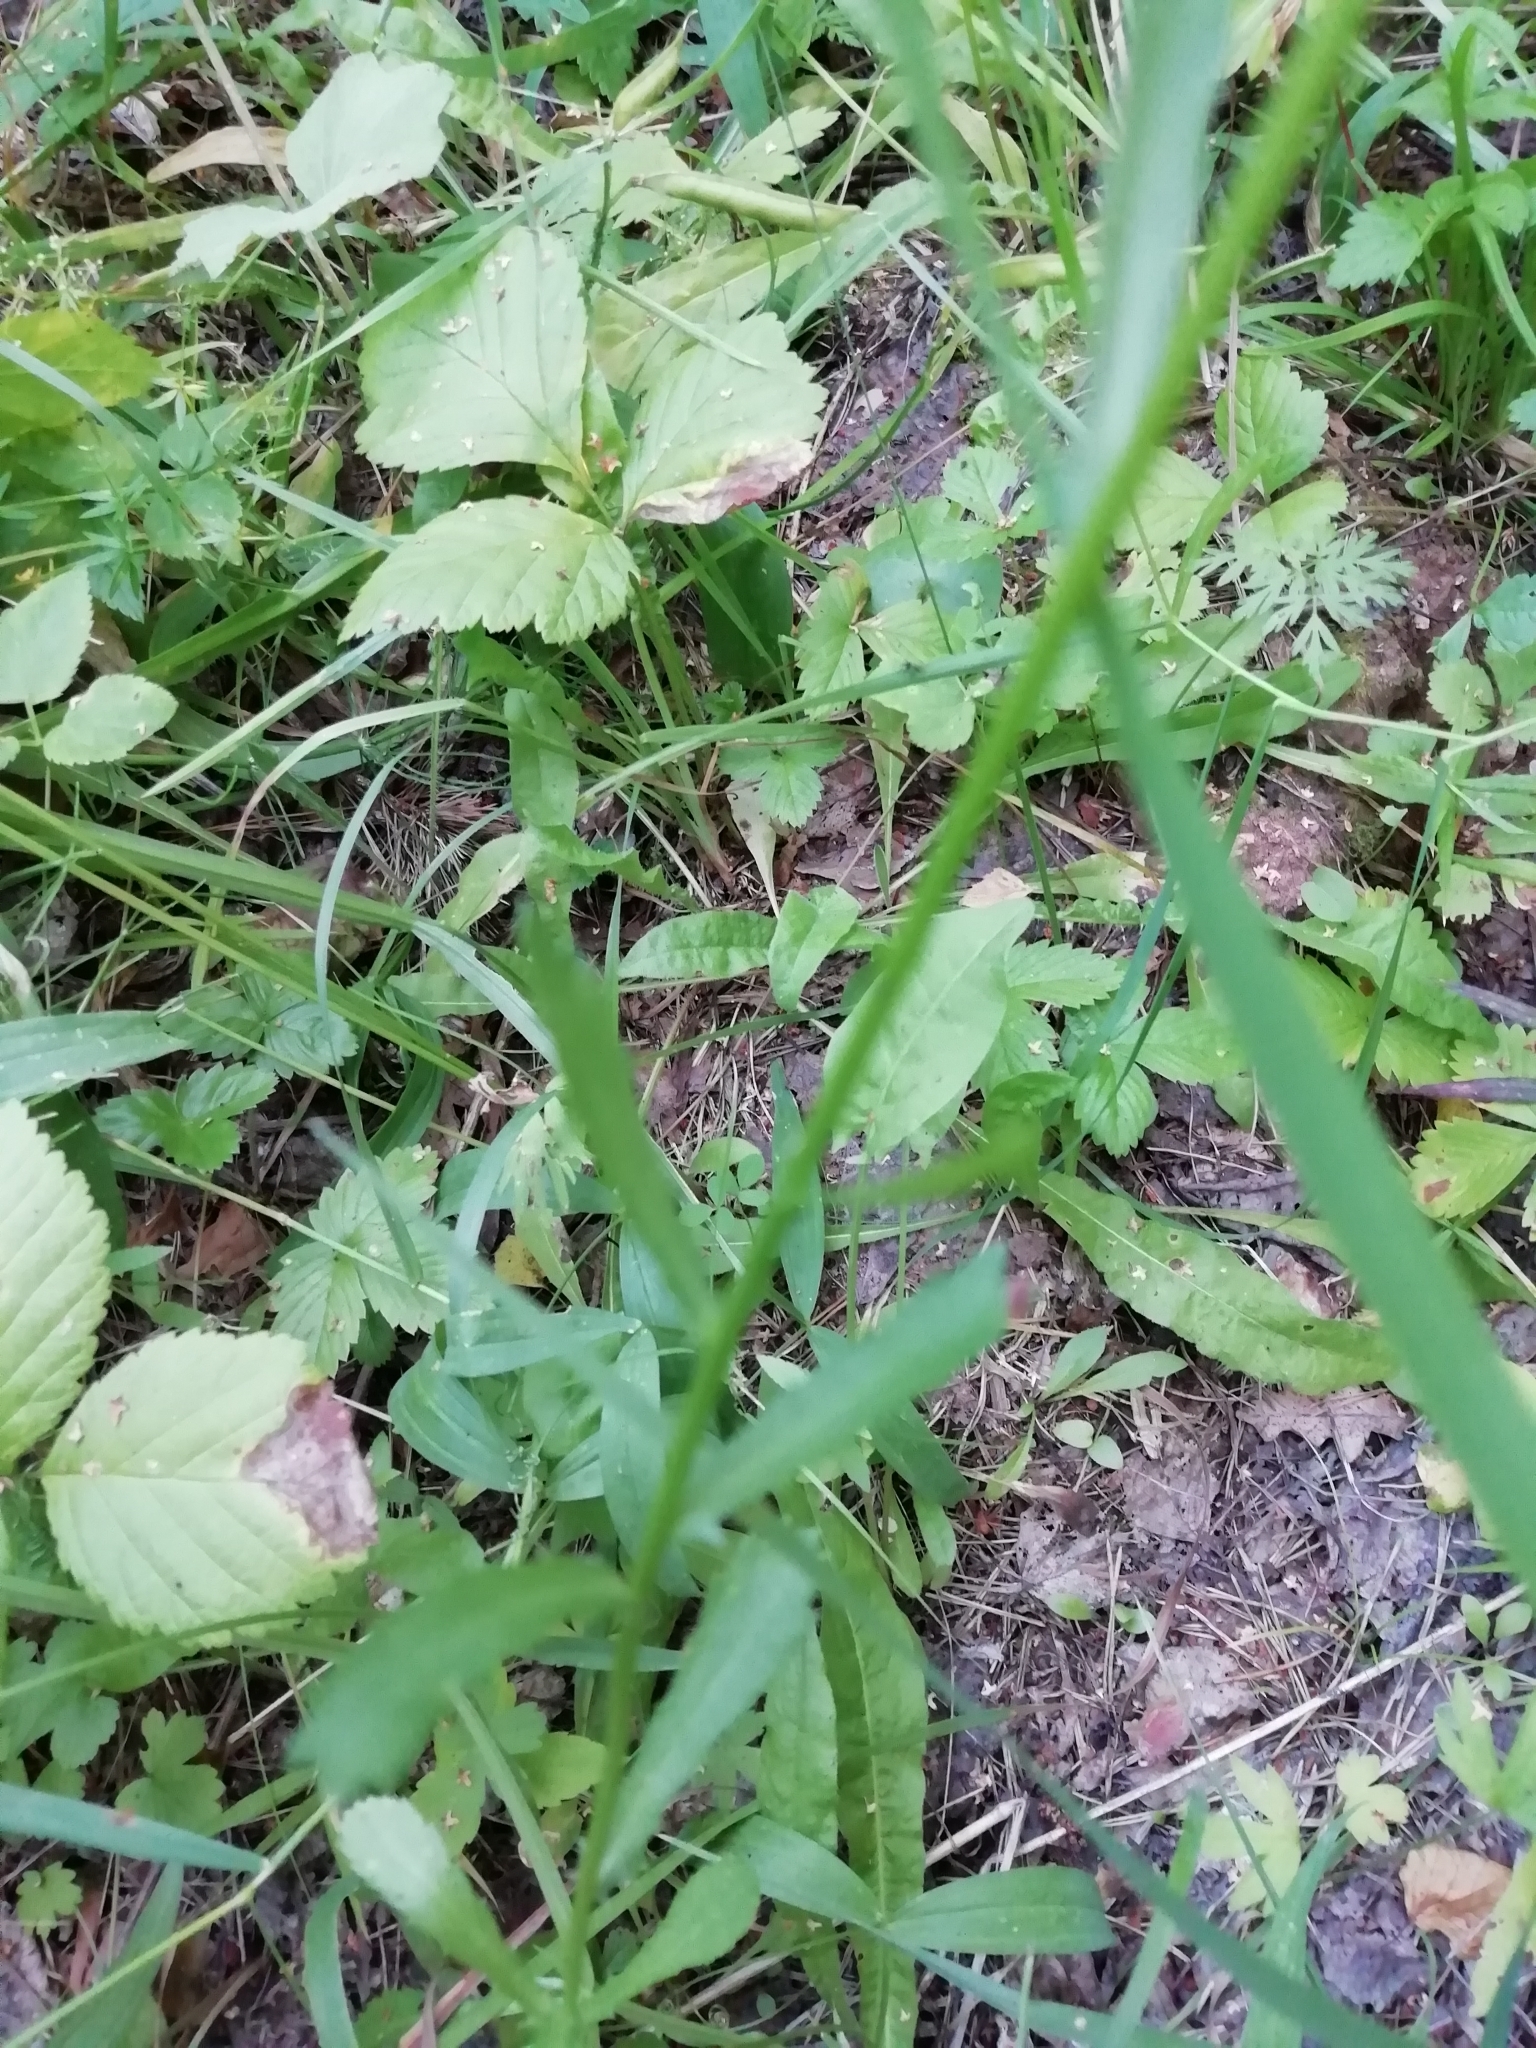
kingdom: Plantae
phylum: Tracheophyta
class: Magnoliopsida
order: Asterales
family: Asteraceae
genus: Leucanthemum
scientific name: Leucanthemum vulgare
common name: Oxeye daisy
